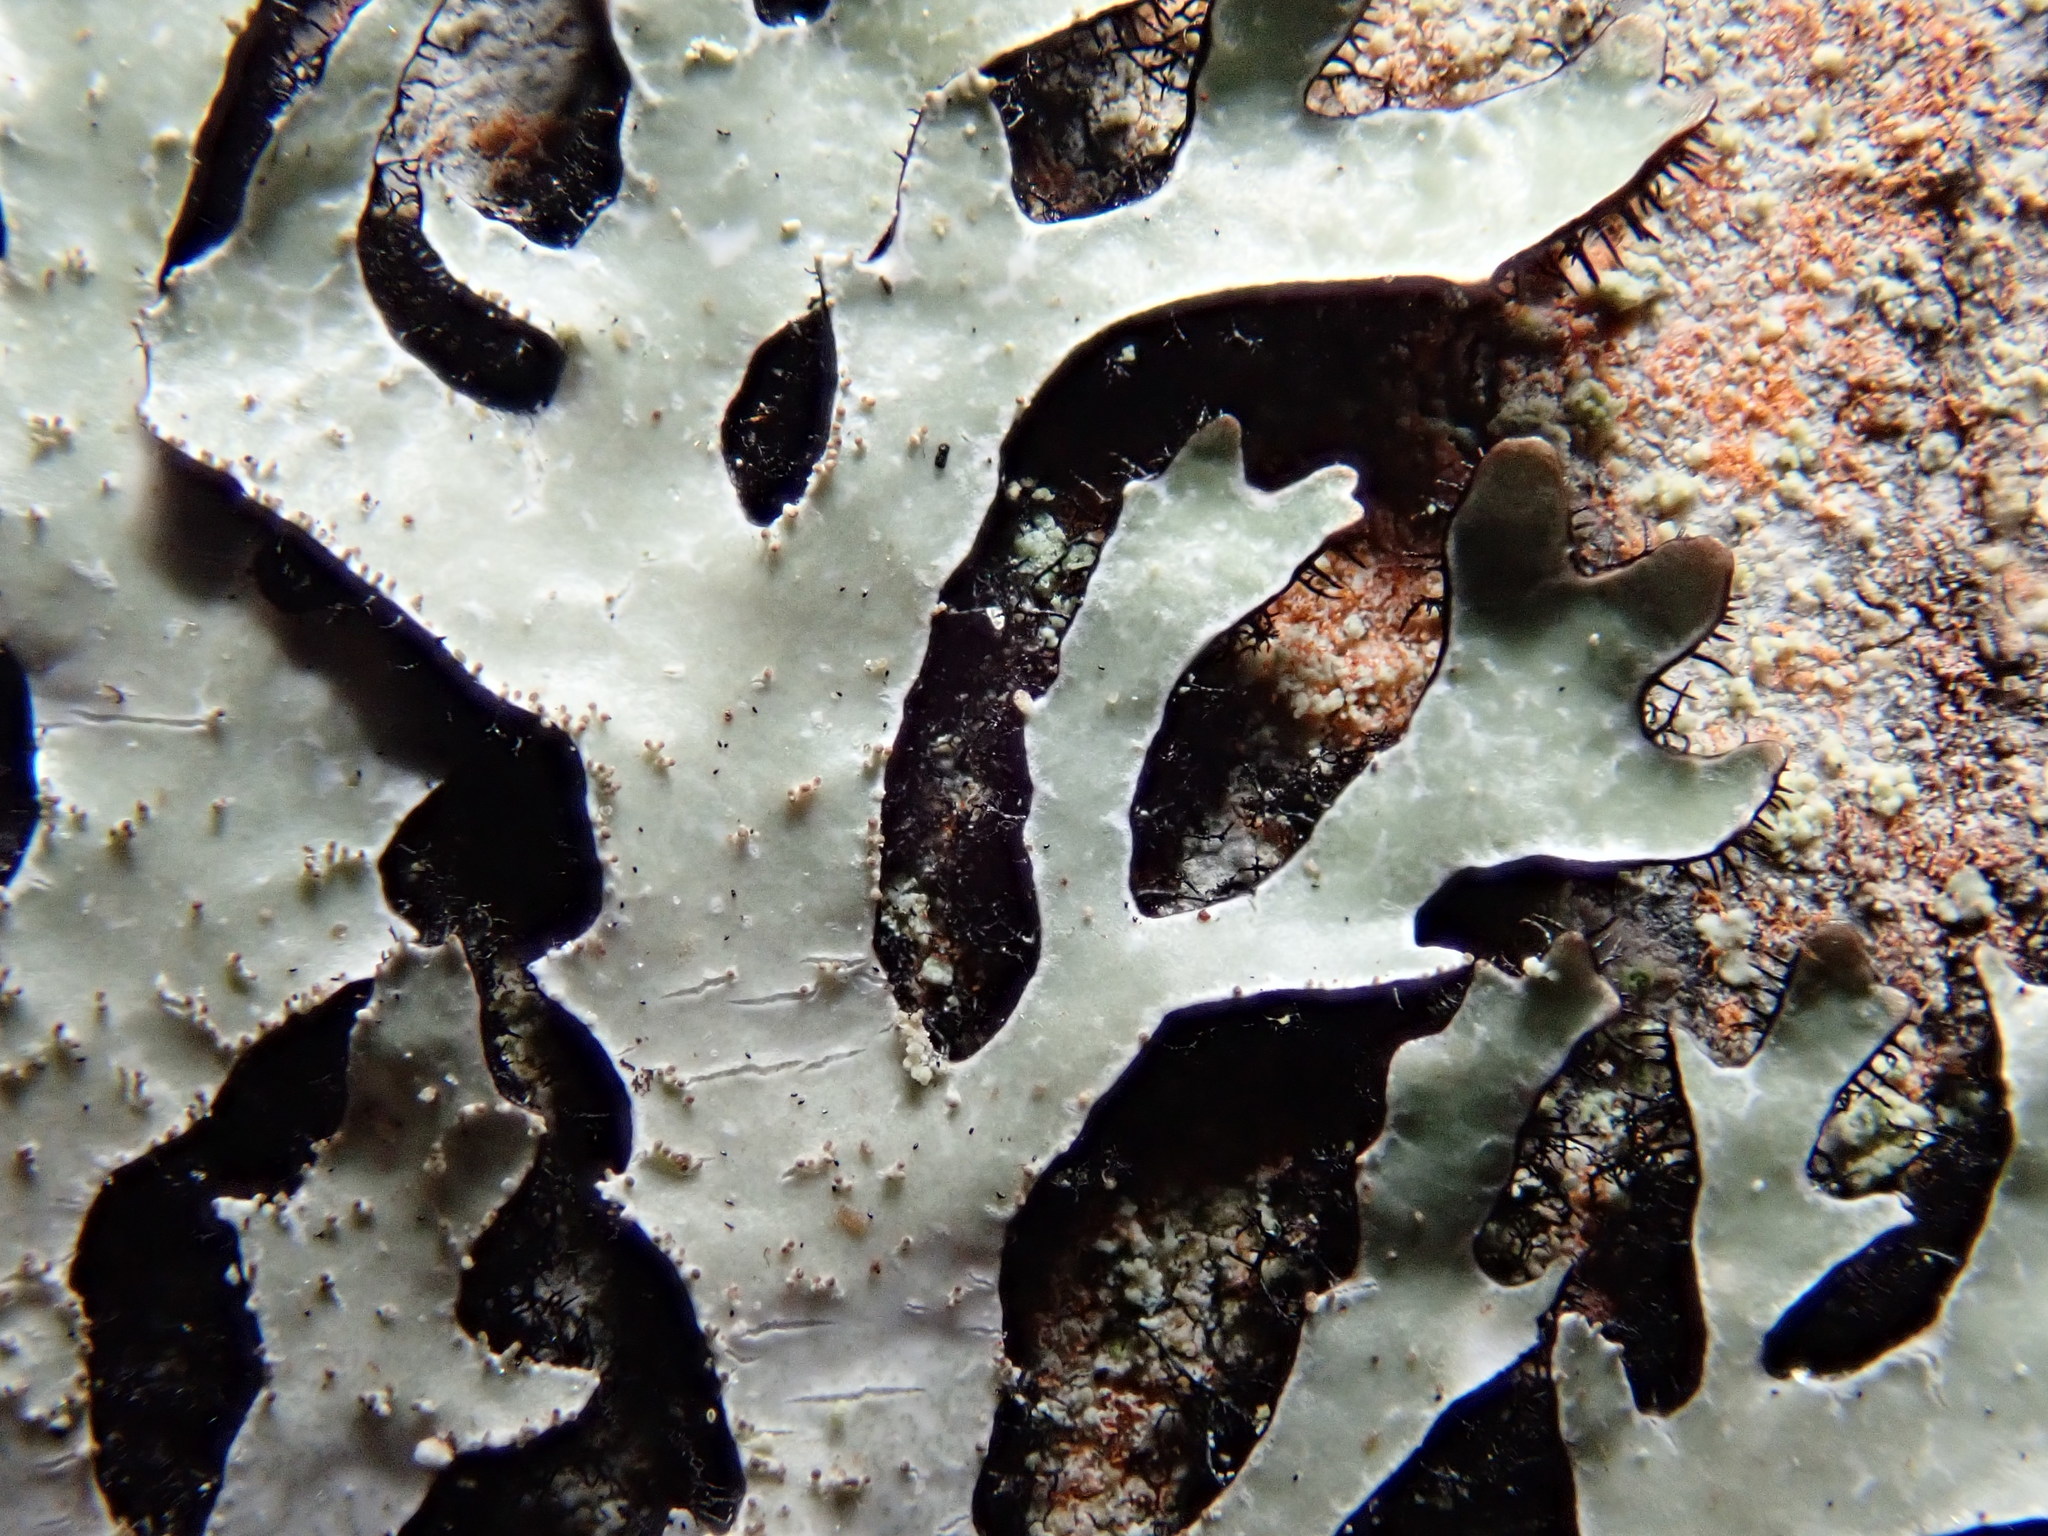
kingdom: Fungi
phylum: Ascomycota
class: Lecanoromycetes
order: Lecanorales
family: Parmeliaceae
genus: Parmelia
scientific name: Parmelia squarrosa
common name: Bottle brush shield lichen
